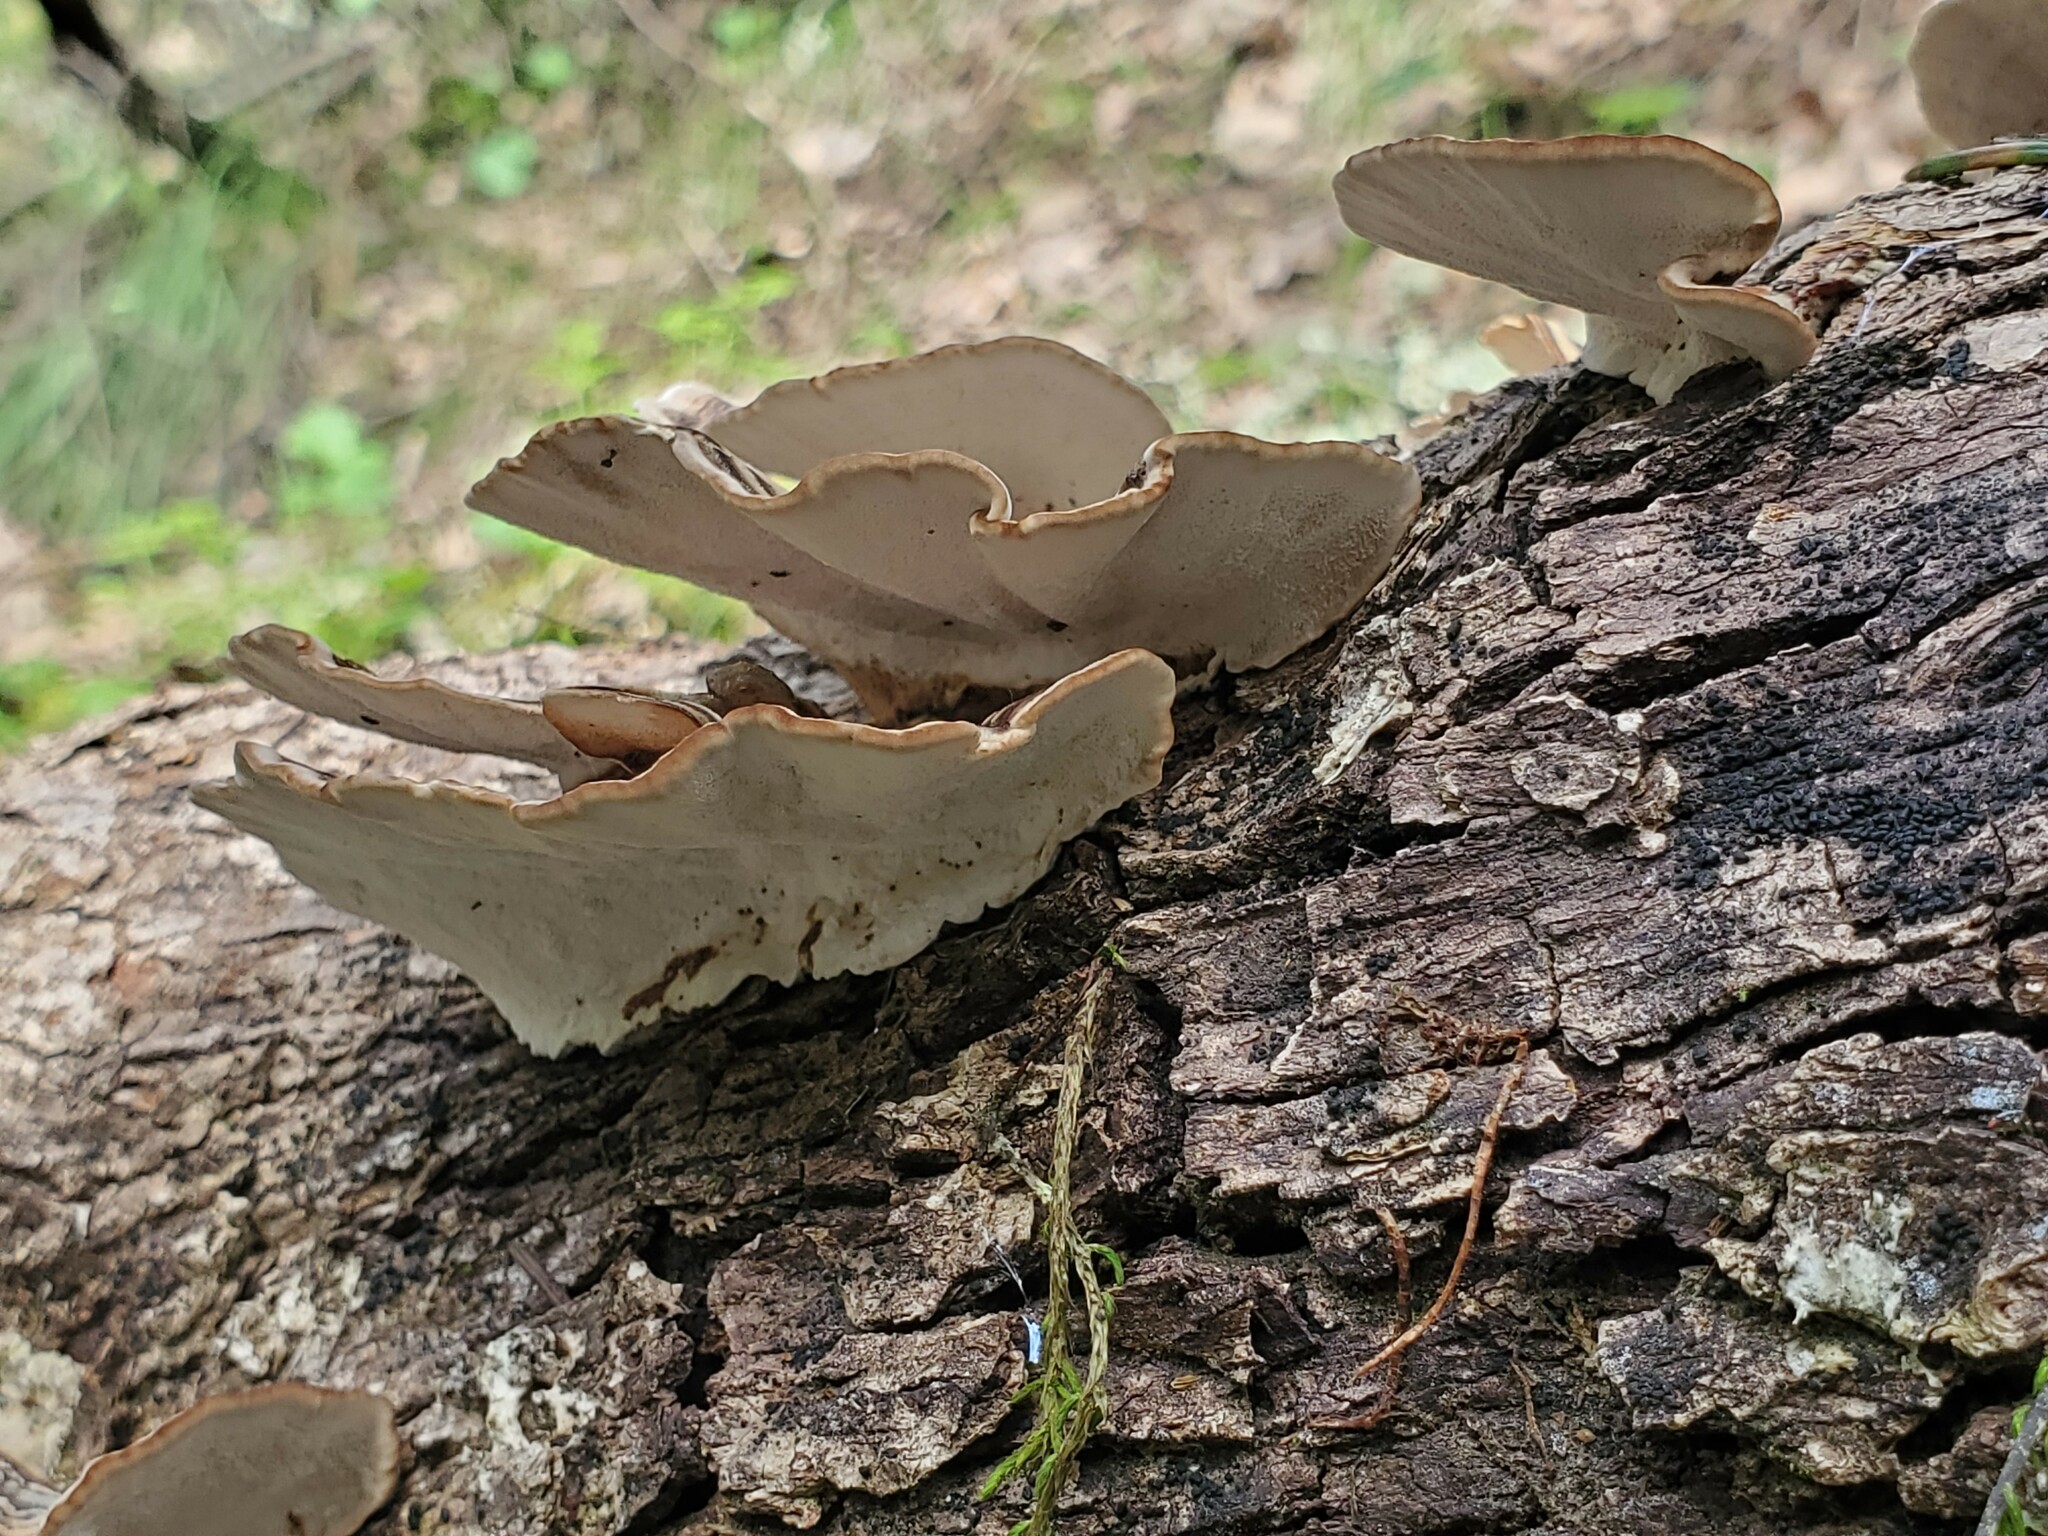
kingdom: Fungi
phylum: Basidiomycota
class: Agaricomycetes
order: Polyporales
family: Polyporaceae
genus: Trametes
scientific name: Trametes versicolor
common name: Turkeytail
